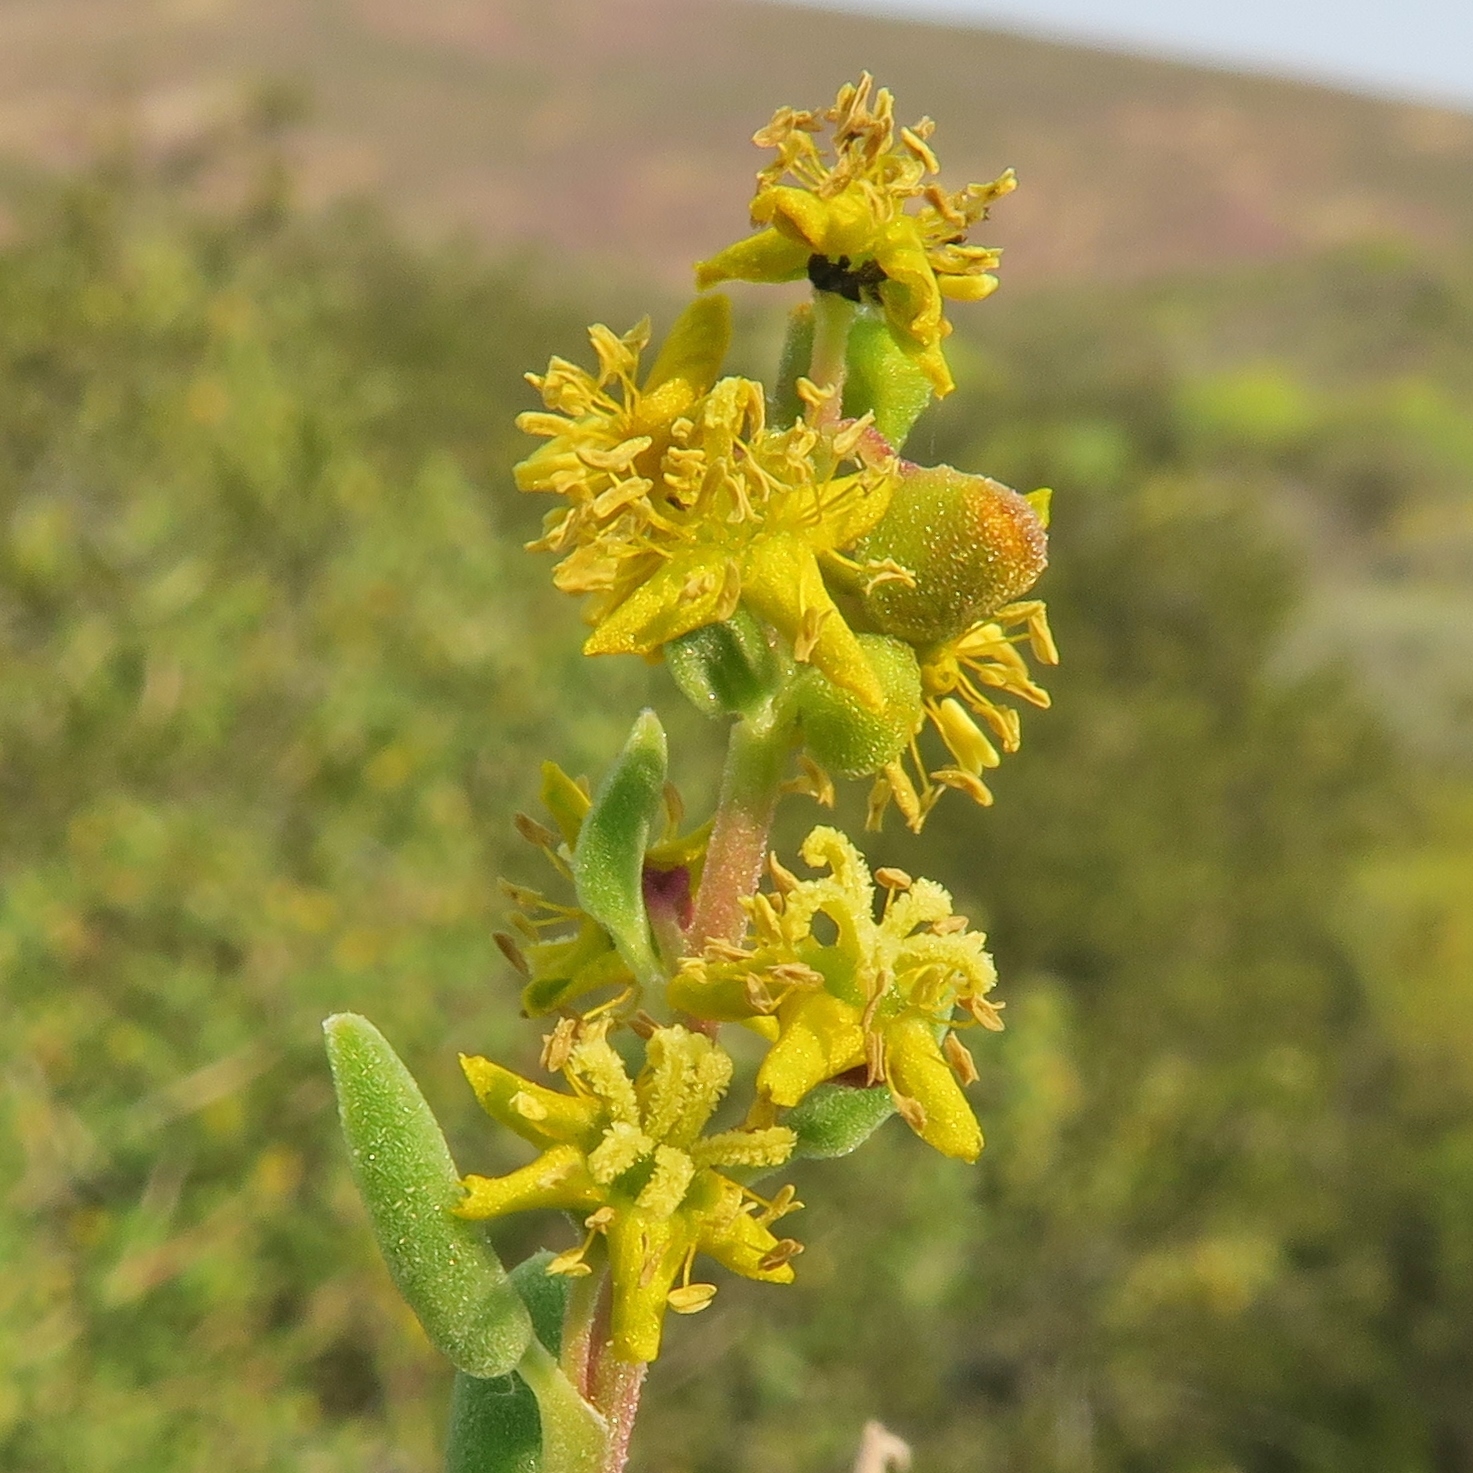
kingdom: Plantae
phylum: Tracheophyta
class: Magnoliopsida
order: Caryophyllales
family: Aizoaceae
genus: Tetragonia
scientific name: Tetragonia fruticosa
